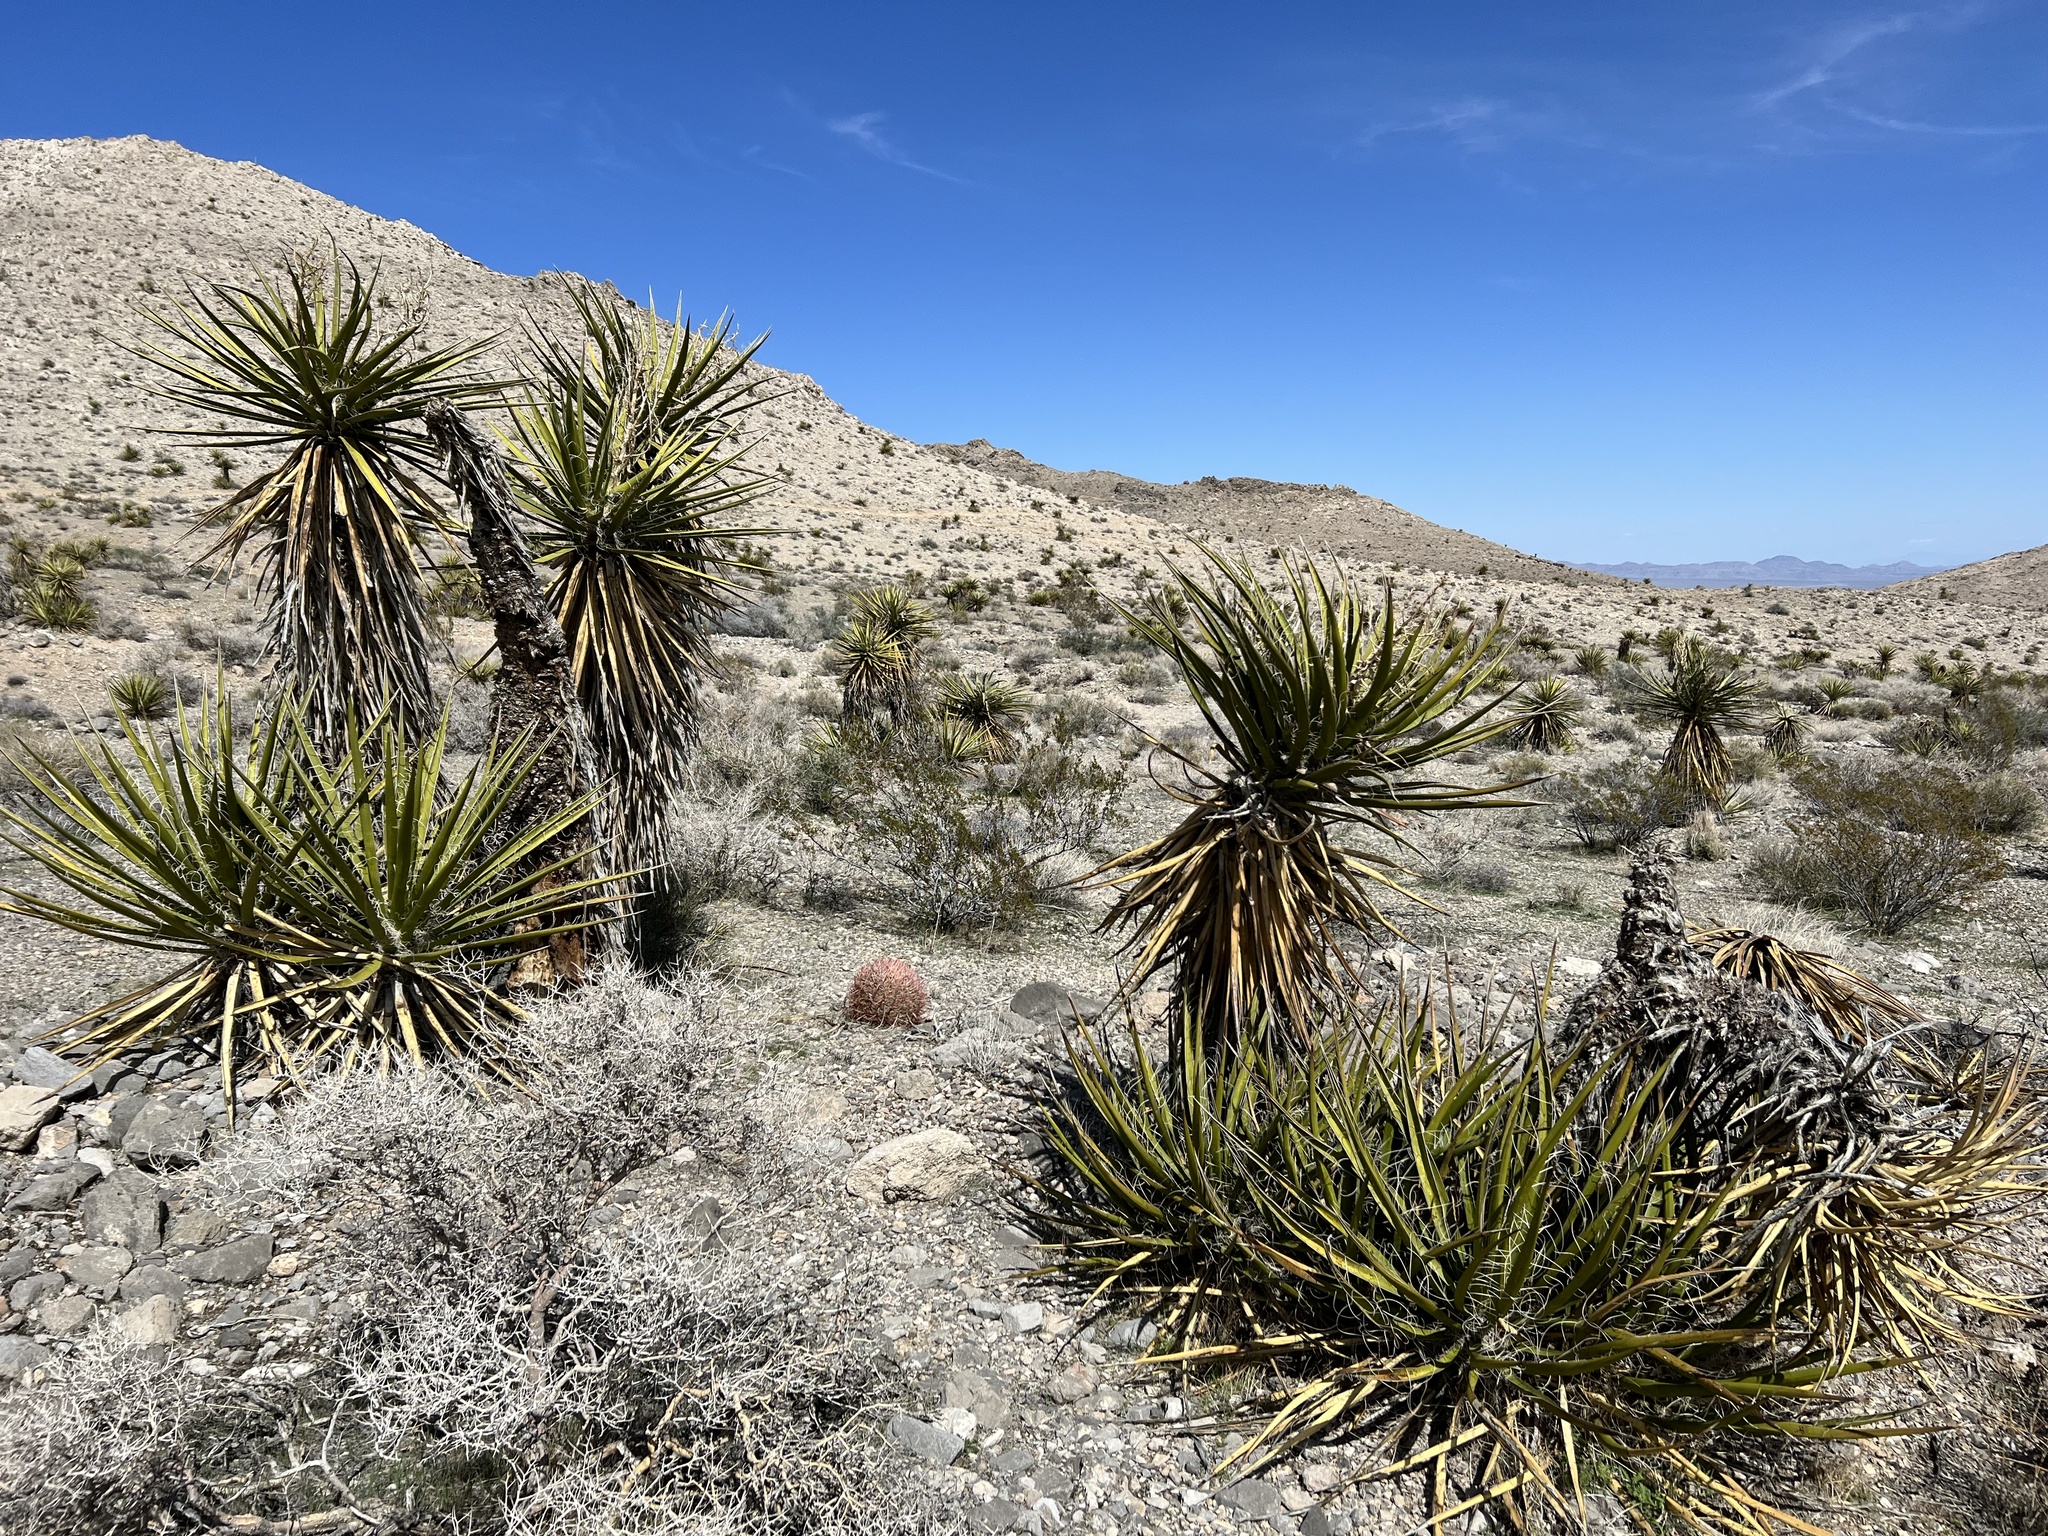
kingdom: Plantae
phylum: Tracheophyta
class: Liliopsida
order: Asparagales
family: Asparagaceae
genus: Yucca
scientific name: Yucca schidigera
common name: Mojave yucca
